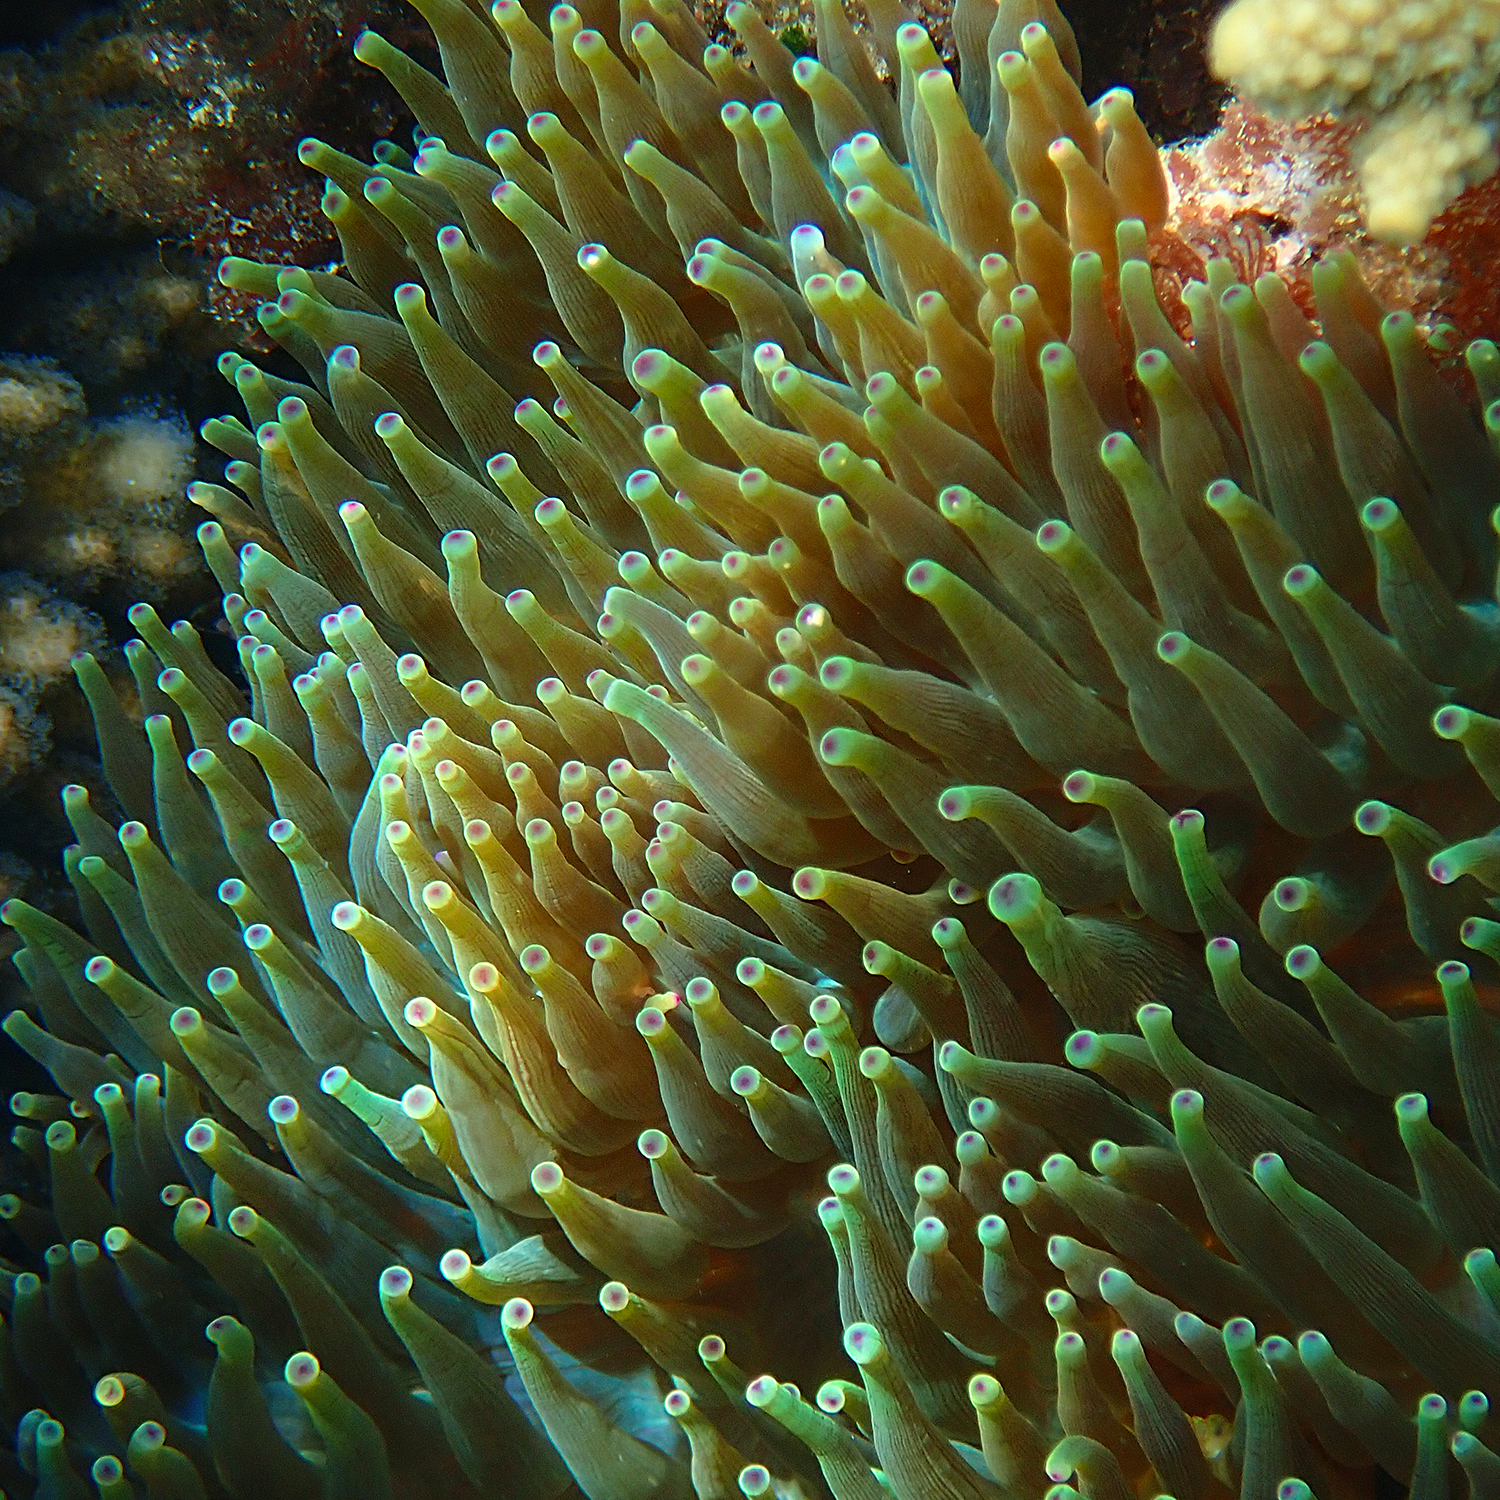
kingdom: Animalia
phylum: Cnidaria
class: Anthozoa
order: Actiniaria
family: Actiniidae
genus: Entacmaea
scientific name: Entacmaea quadricolor
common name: Bulb tentacle sea anemone
